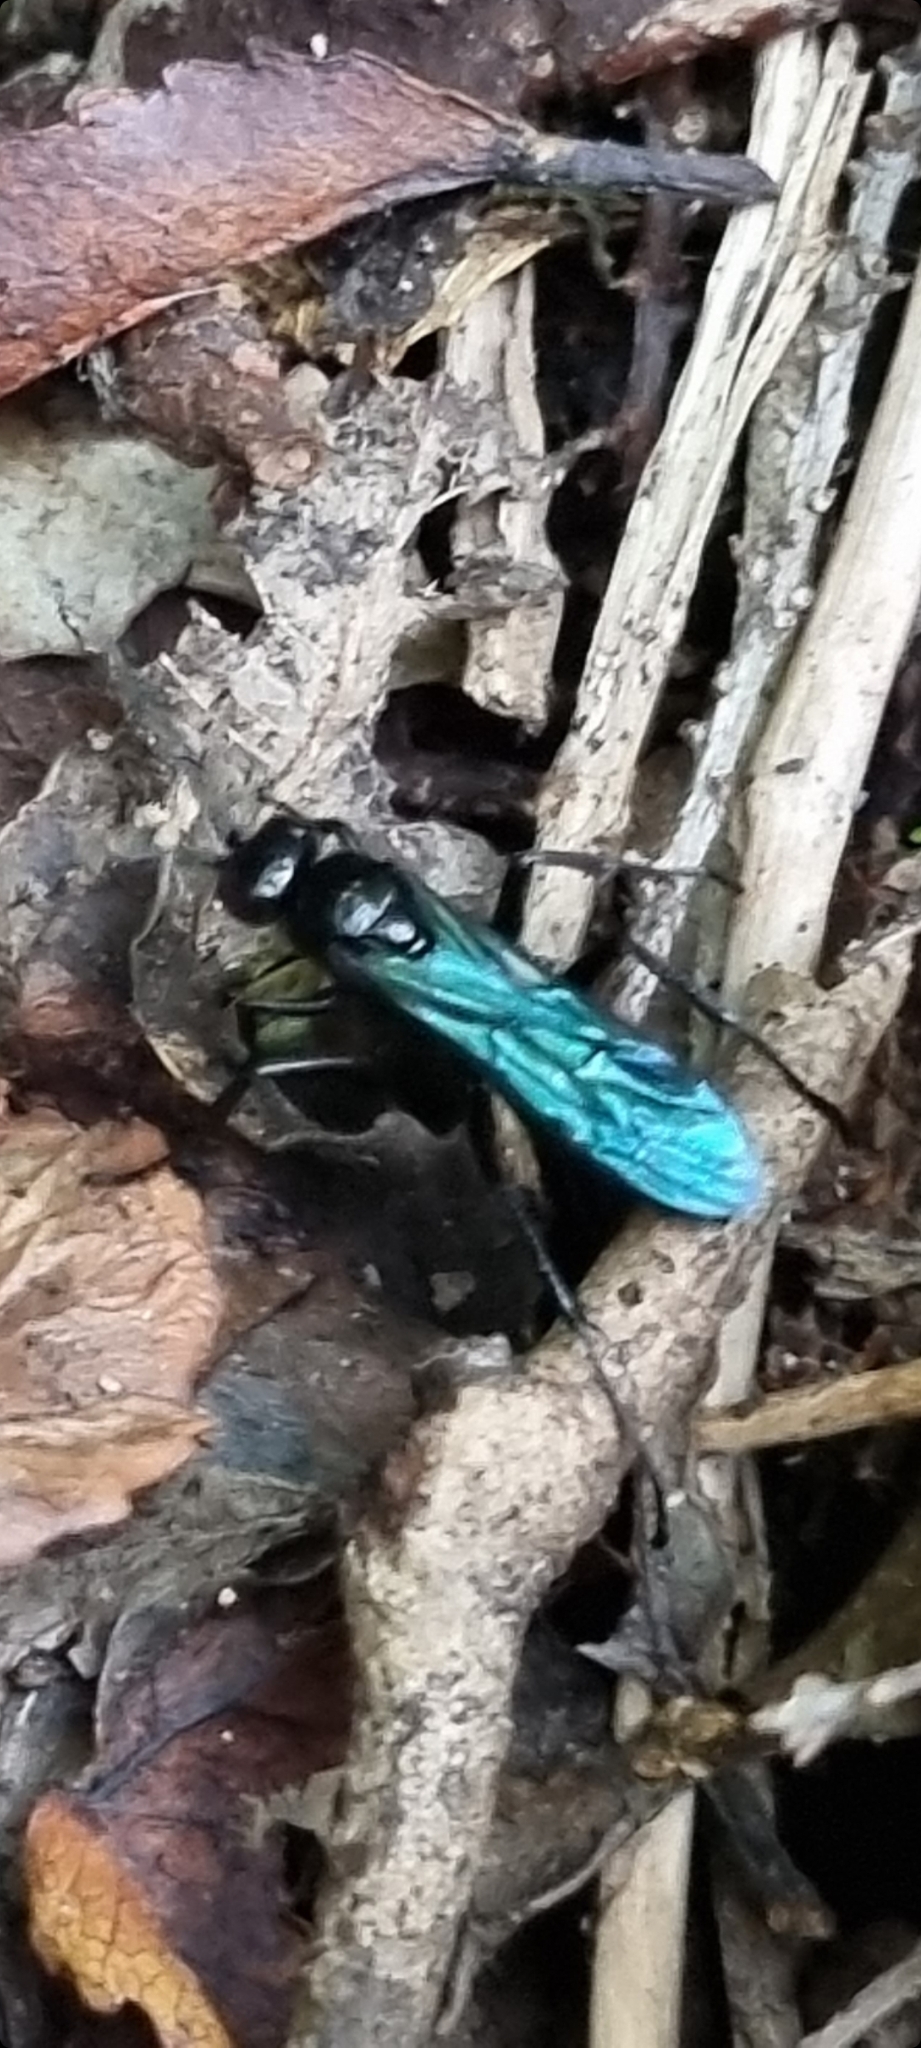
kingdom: Animalia
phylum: Arthropoda
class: Insecta
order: Hymenoptera
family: Pompilidae
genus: Priocnemis
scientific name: Priocnemis monachus
